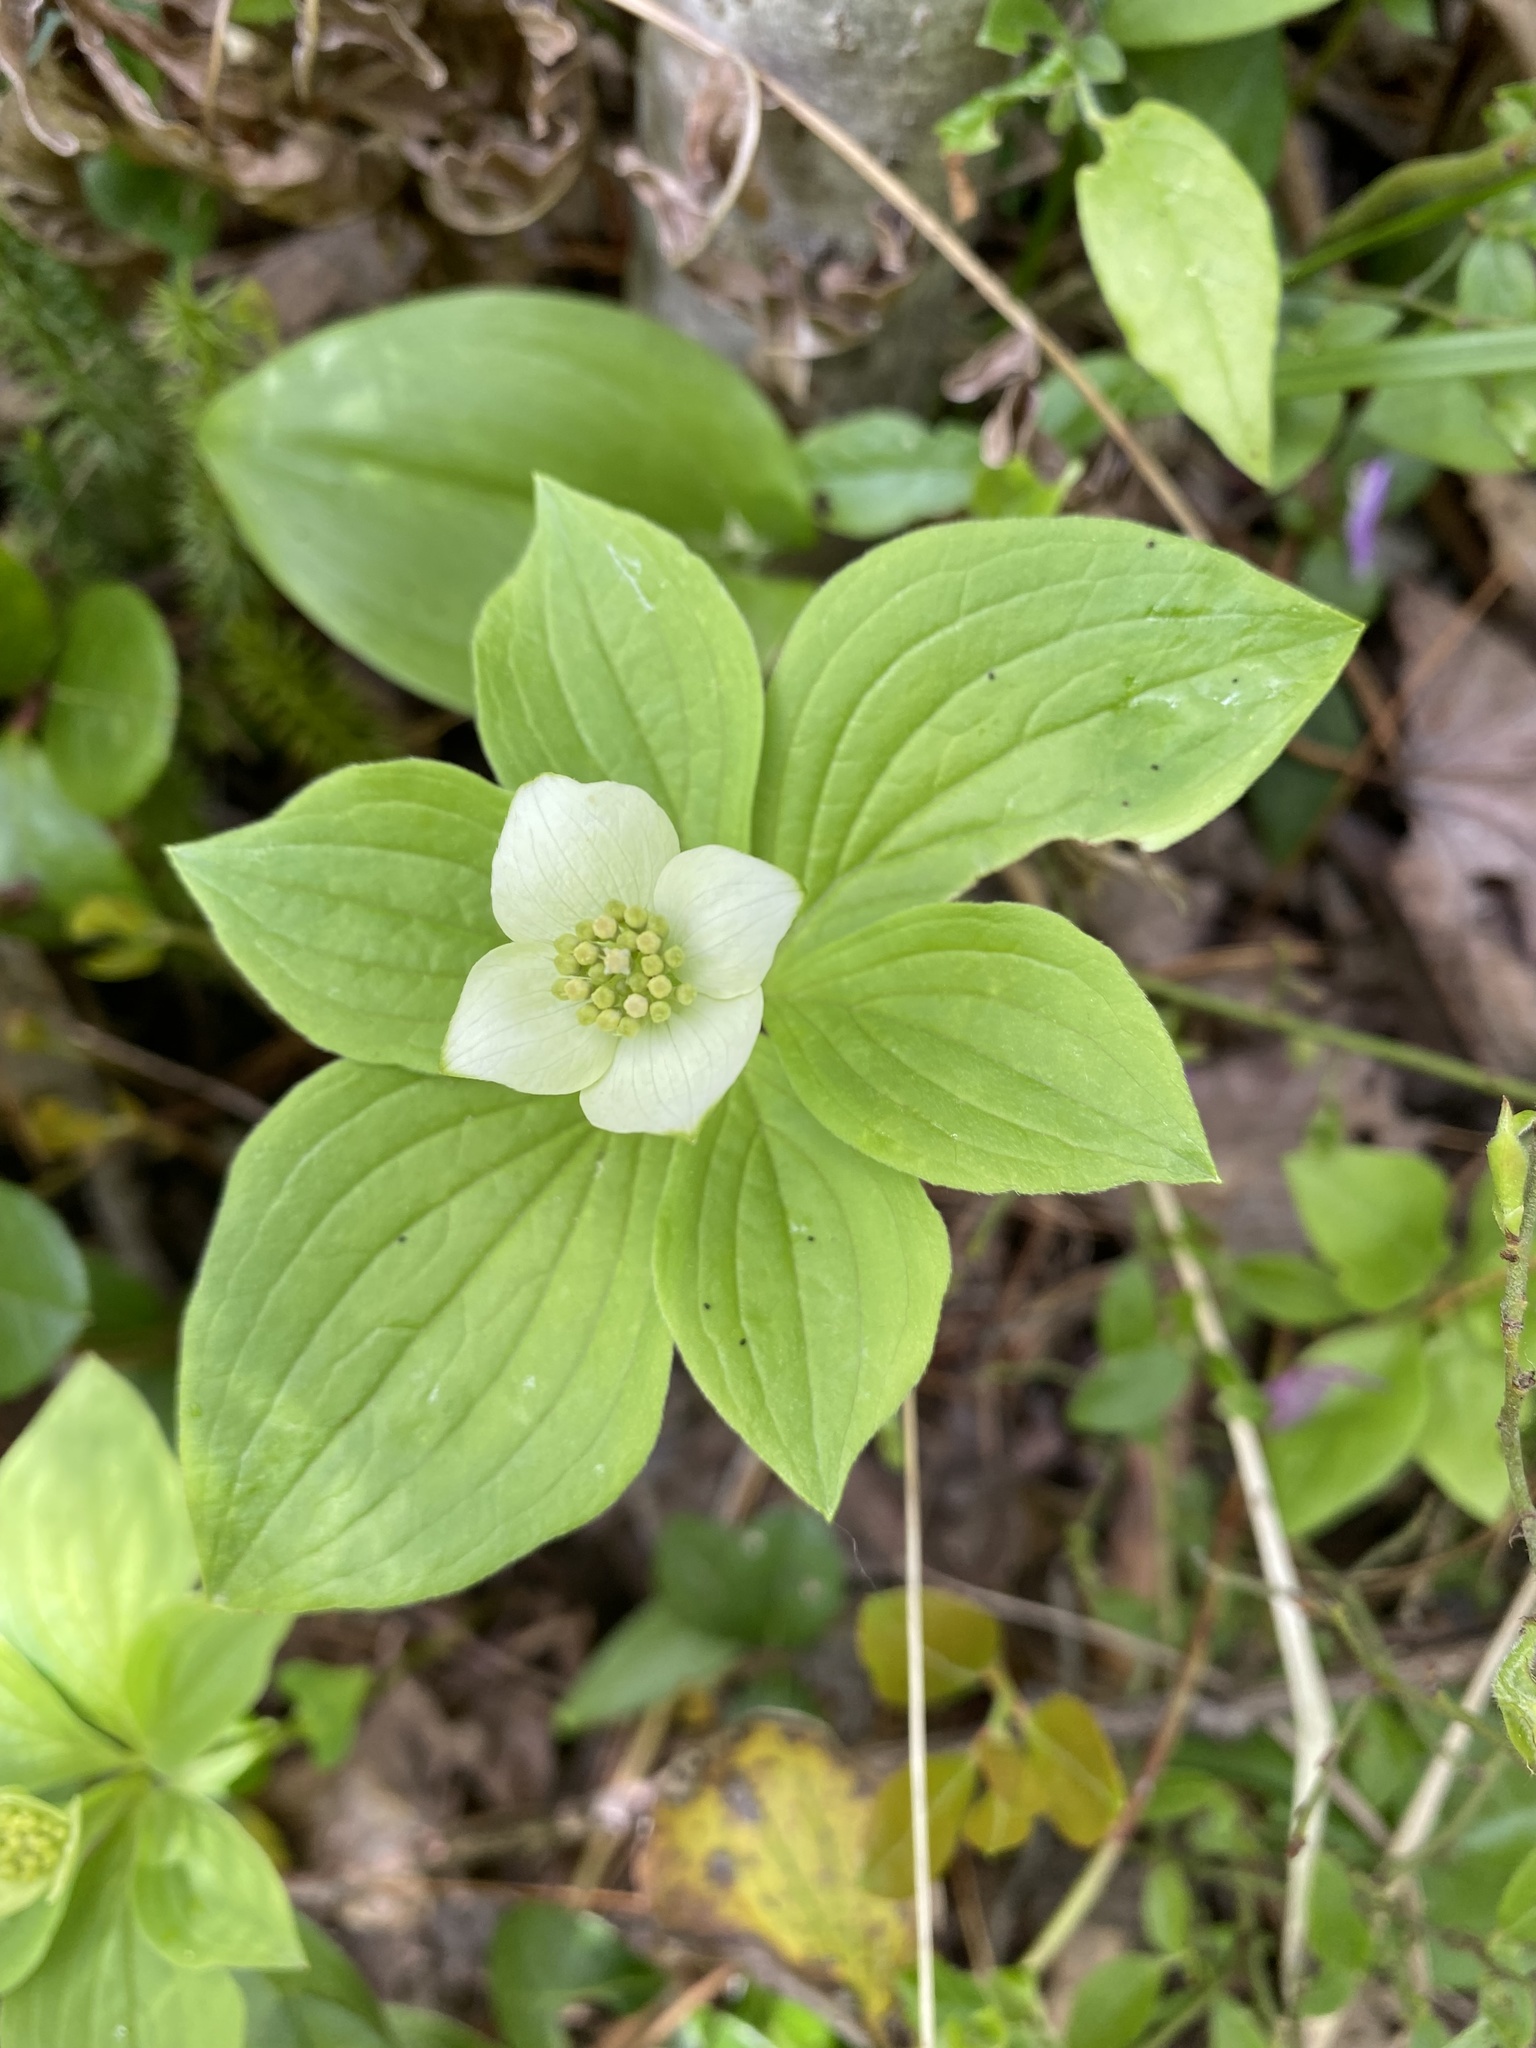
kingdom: Plantae
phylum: Tracheophyta
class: Magnoliopsida
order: Cornales
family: Cornaceae
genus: Cornus
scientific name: Cornus canadensis
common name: Creeping dogwood
